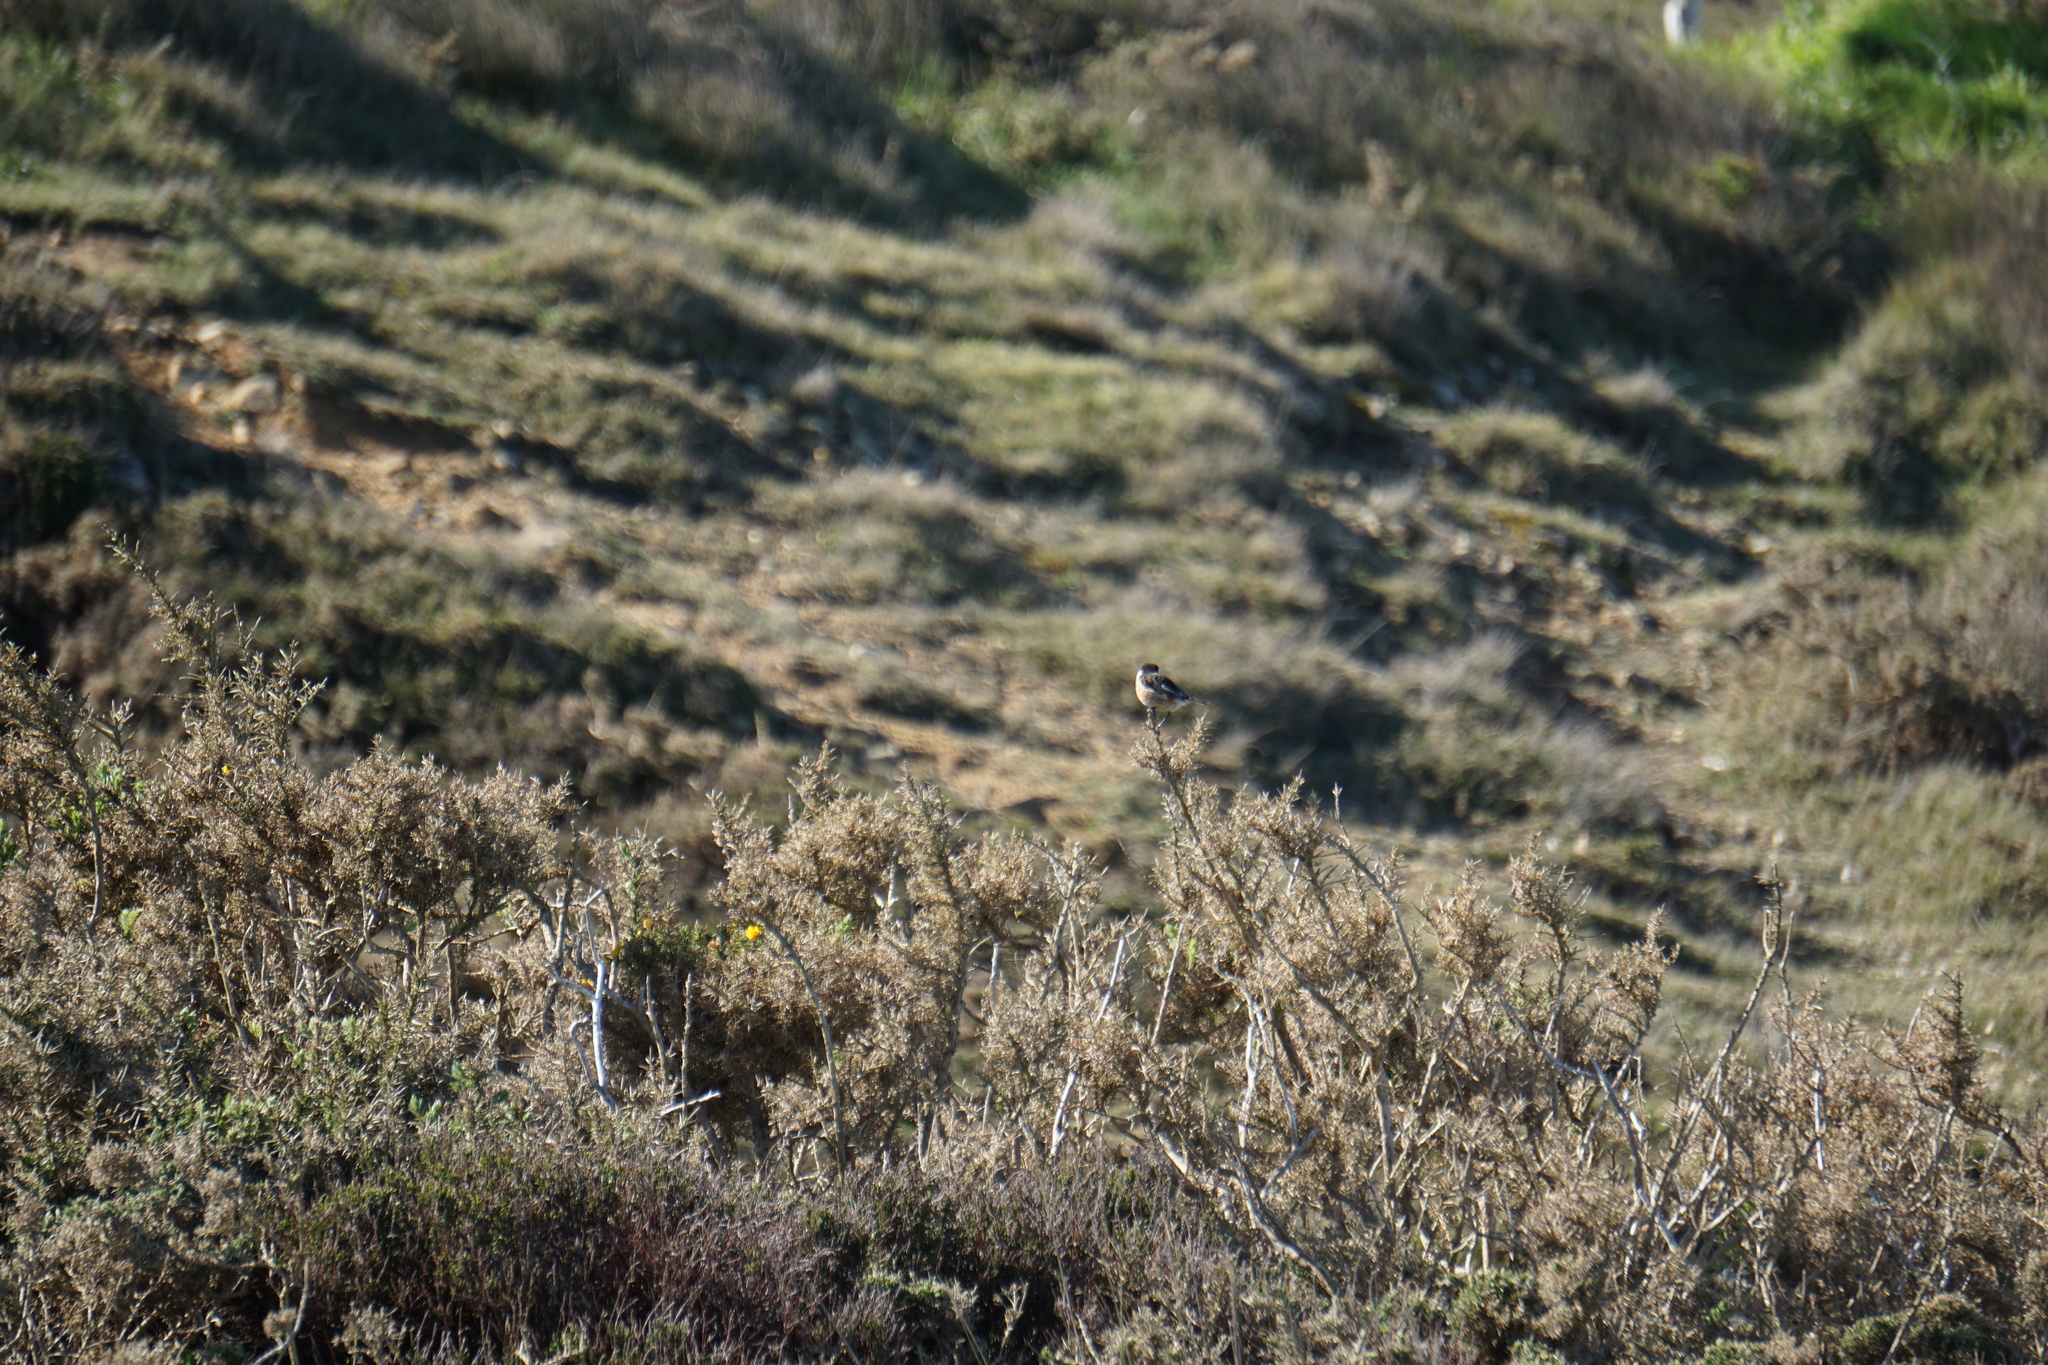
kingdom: Animalia
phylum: Chordata
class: Aves
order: Passeriformes
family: Muscicapidae
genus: Saxicola
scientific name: Saxicola rubicola
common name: European stonechat
